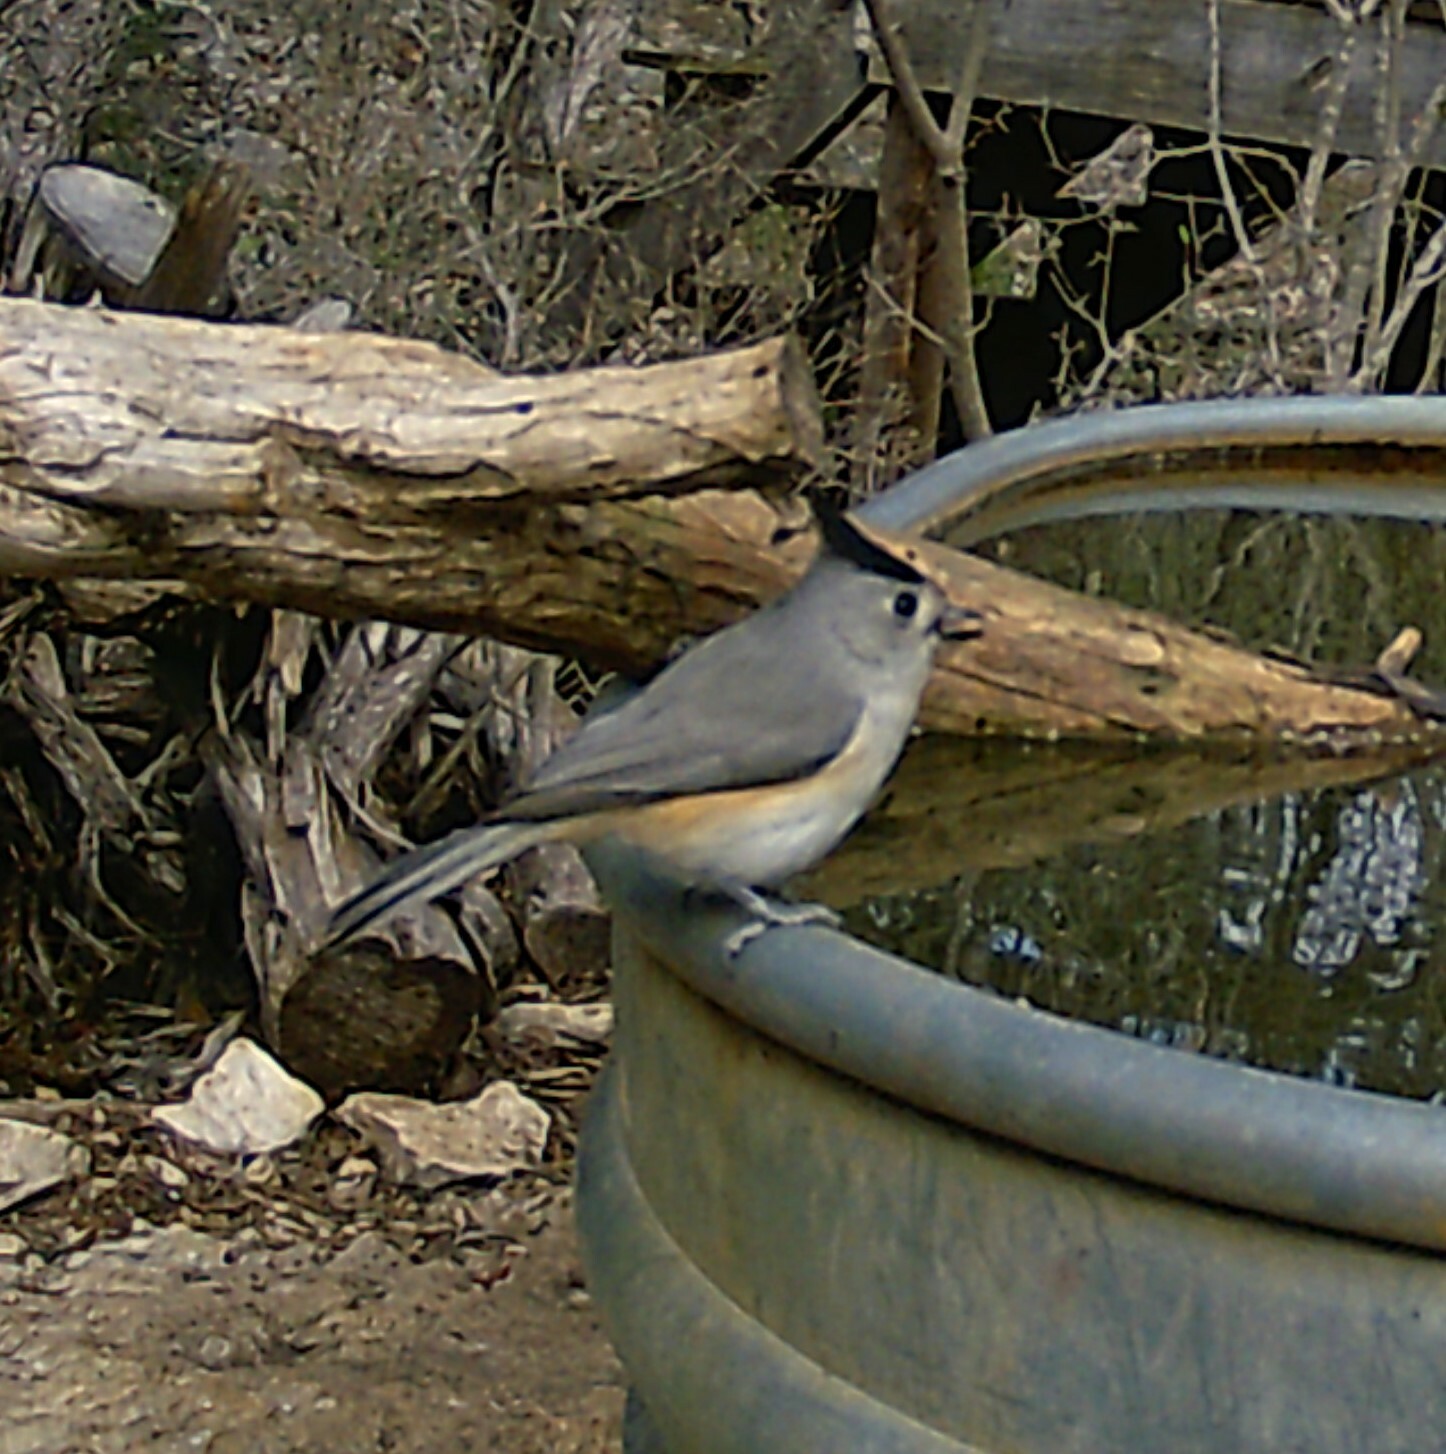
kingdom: Animalia
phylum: Chordata
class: Aves
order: Passeriformes
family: Paridae
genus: Baeolophus
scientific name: Baeolophus atricristatus
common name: Black-crested titmouse
